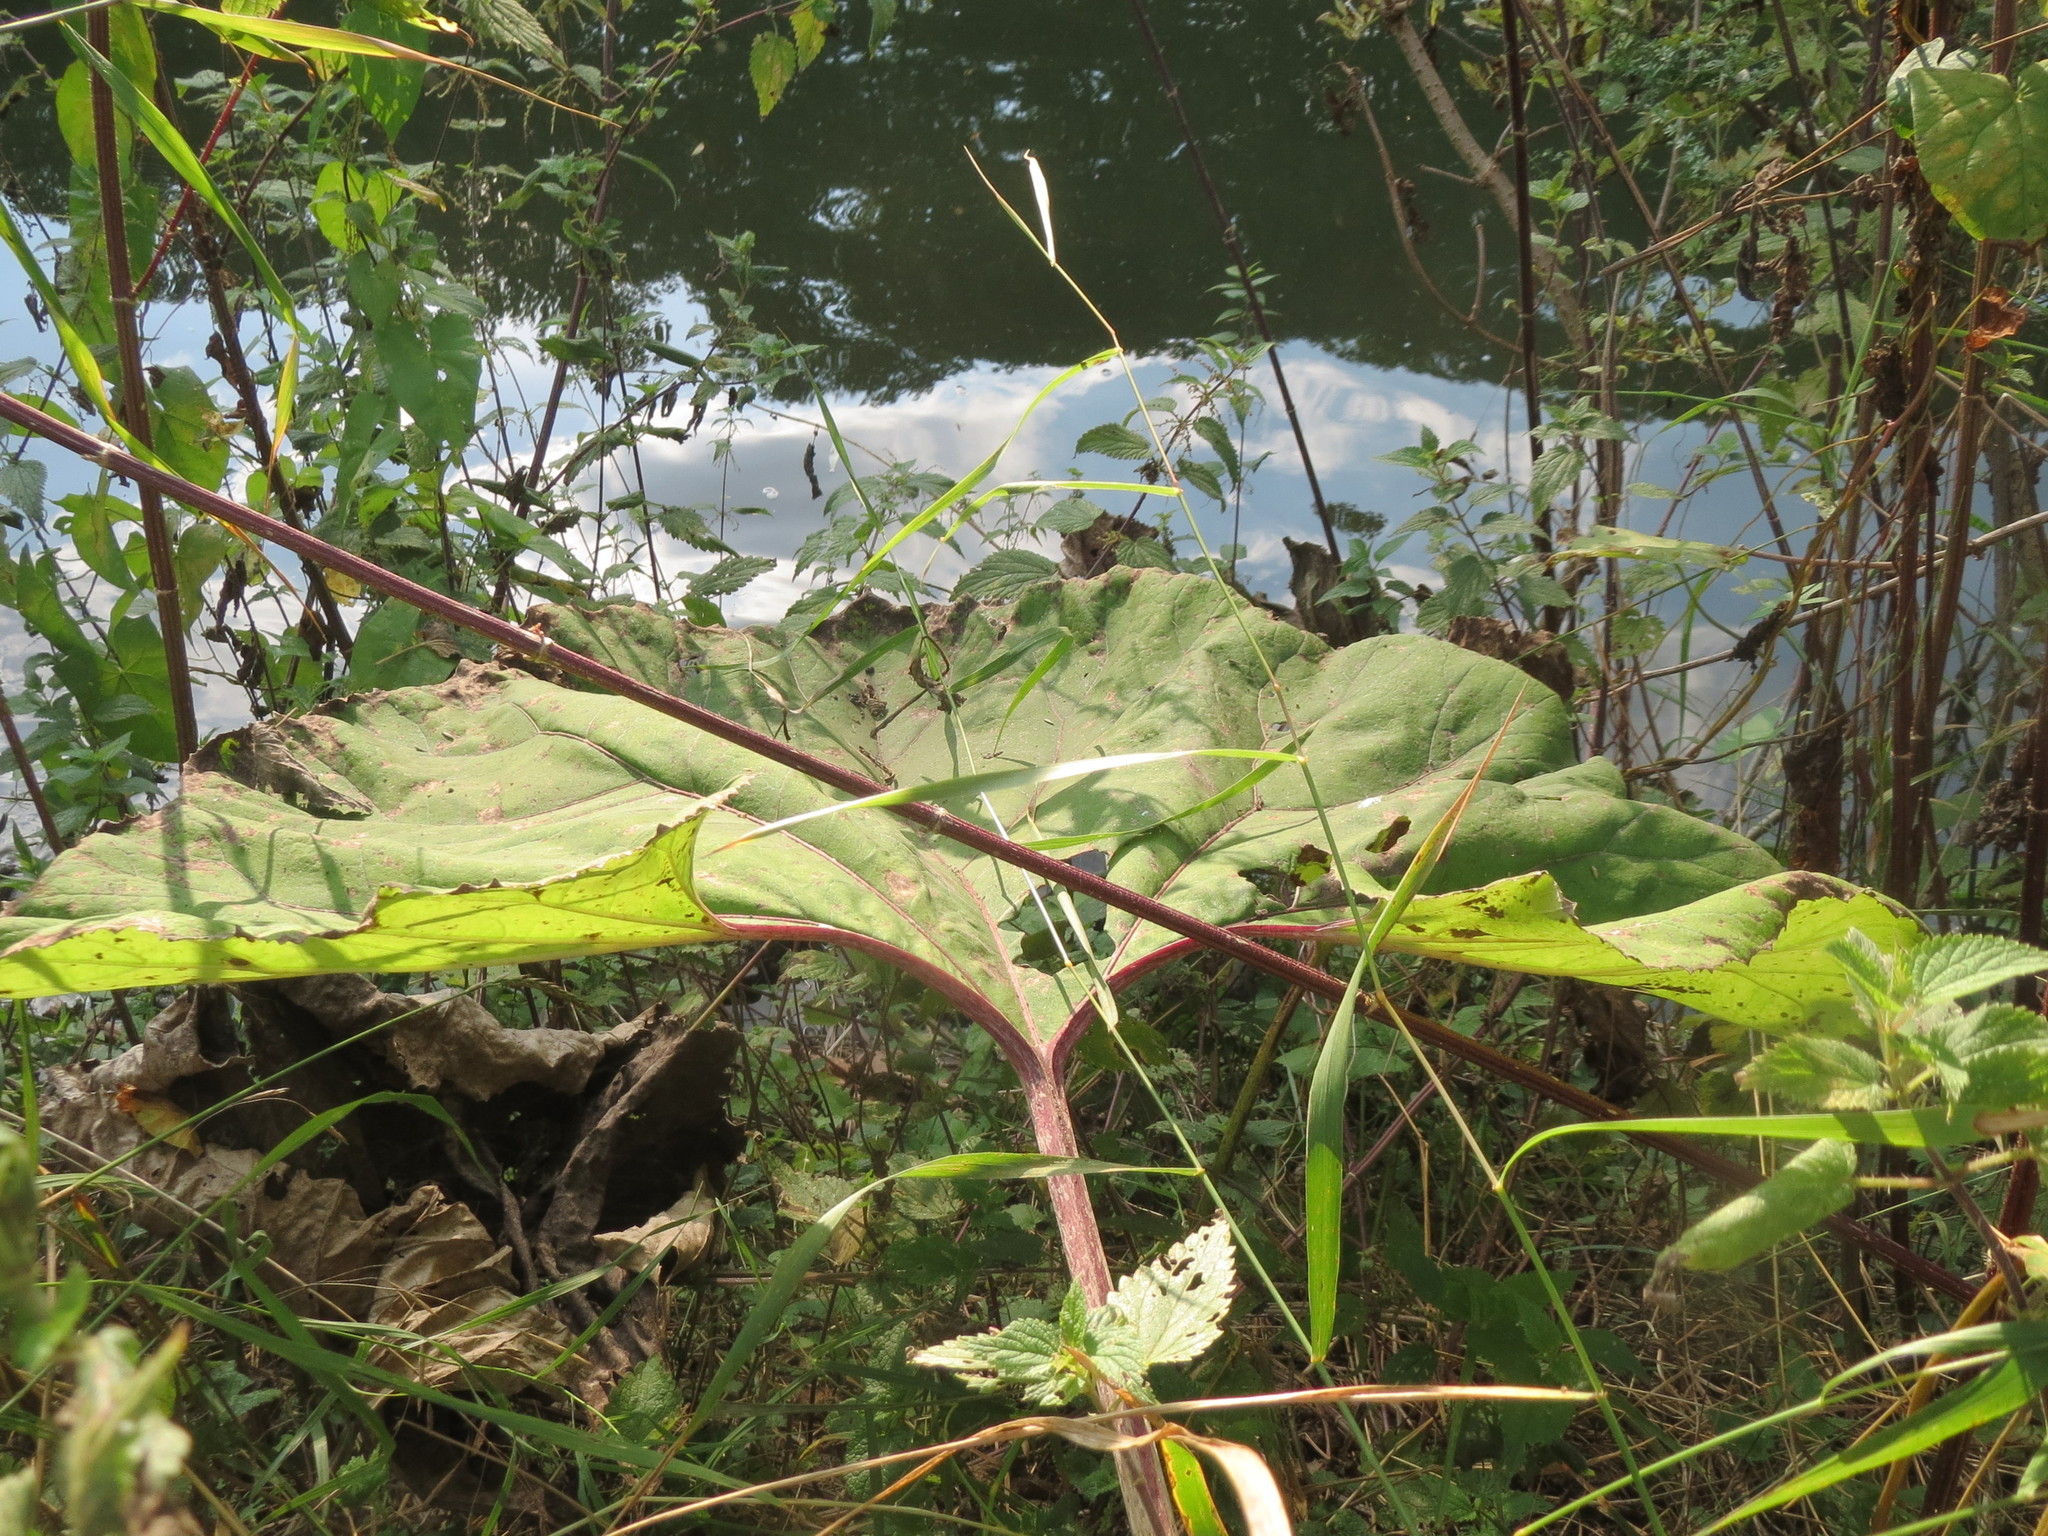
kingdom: Plantae
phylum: Tracheophyta
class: Magnoliopsida
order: Asterales
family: Asteraceae
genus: Petasites
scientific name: Petasites hybridus
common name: Butterbur
